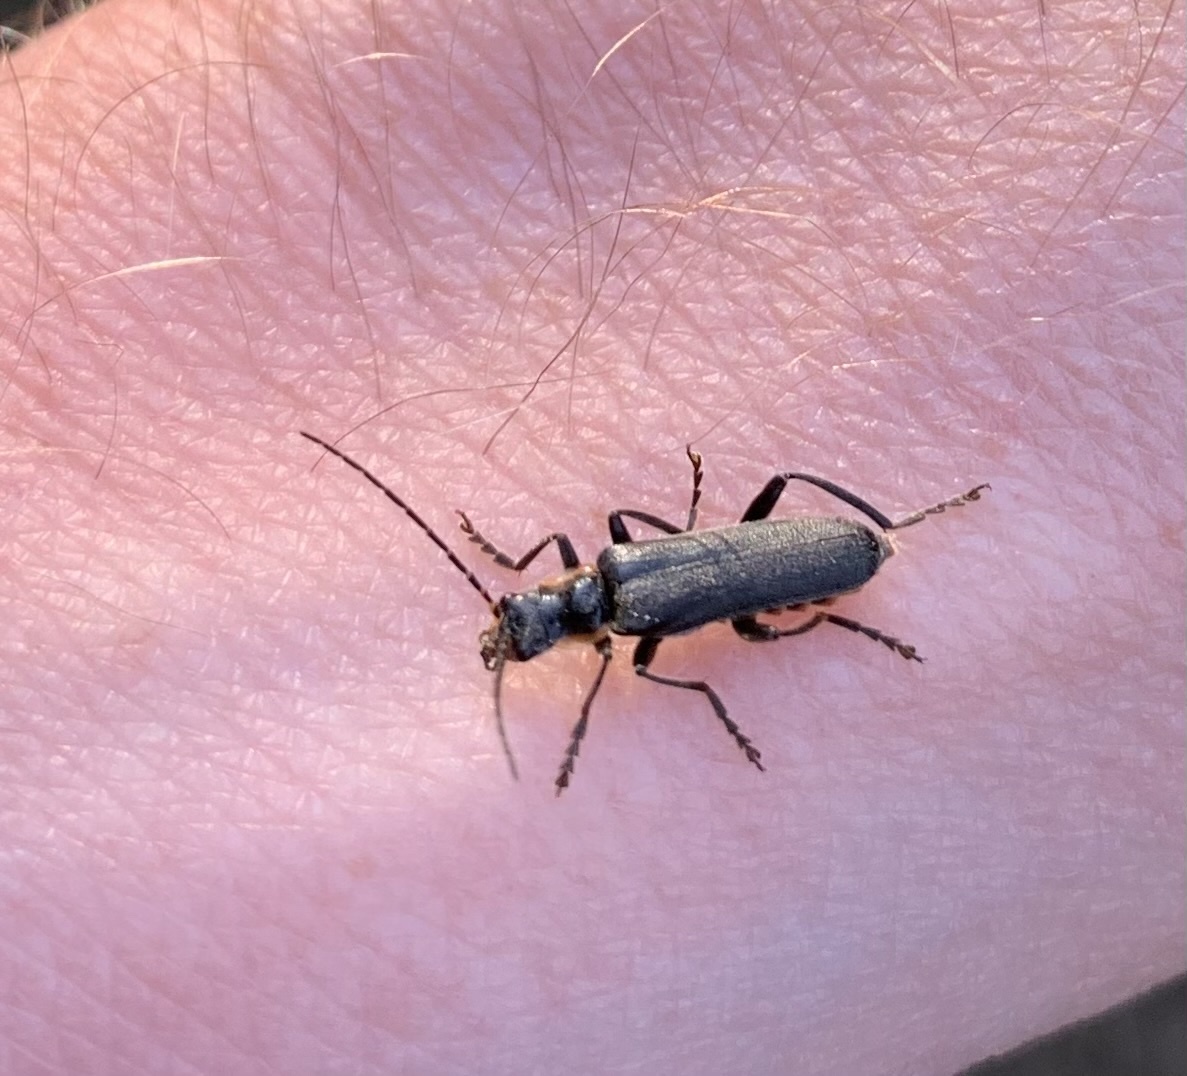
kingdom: Animalia
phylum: Arthropoda
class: Insecta
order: Coleoptera
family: Cantharidae
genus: Cantharis
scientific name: Cantharis obscura
